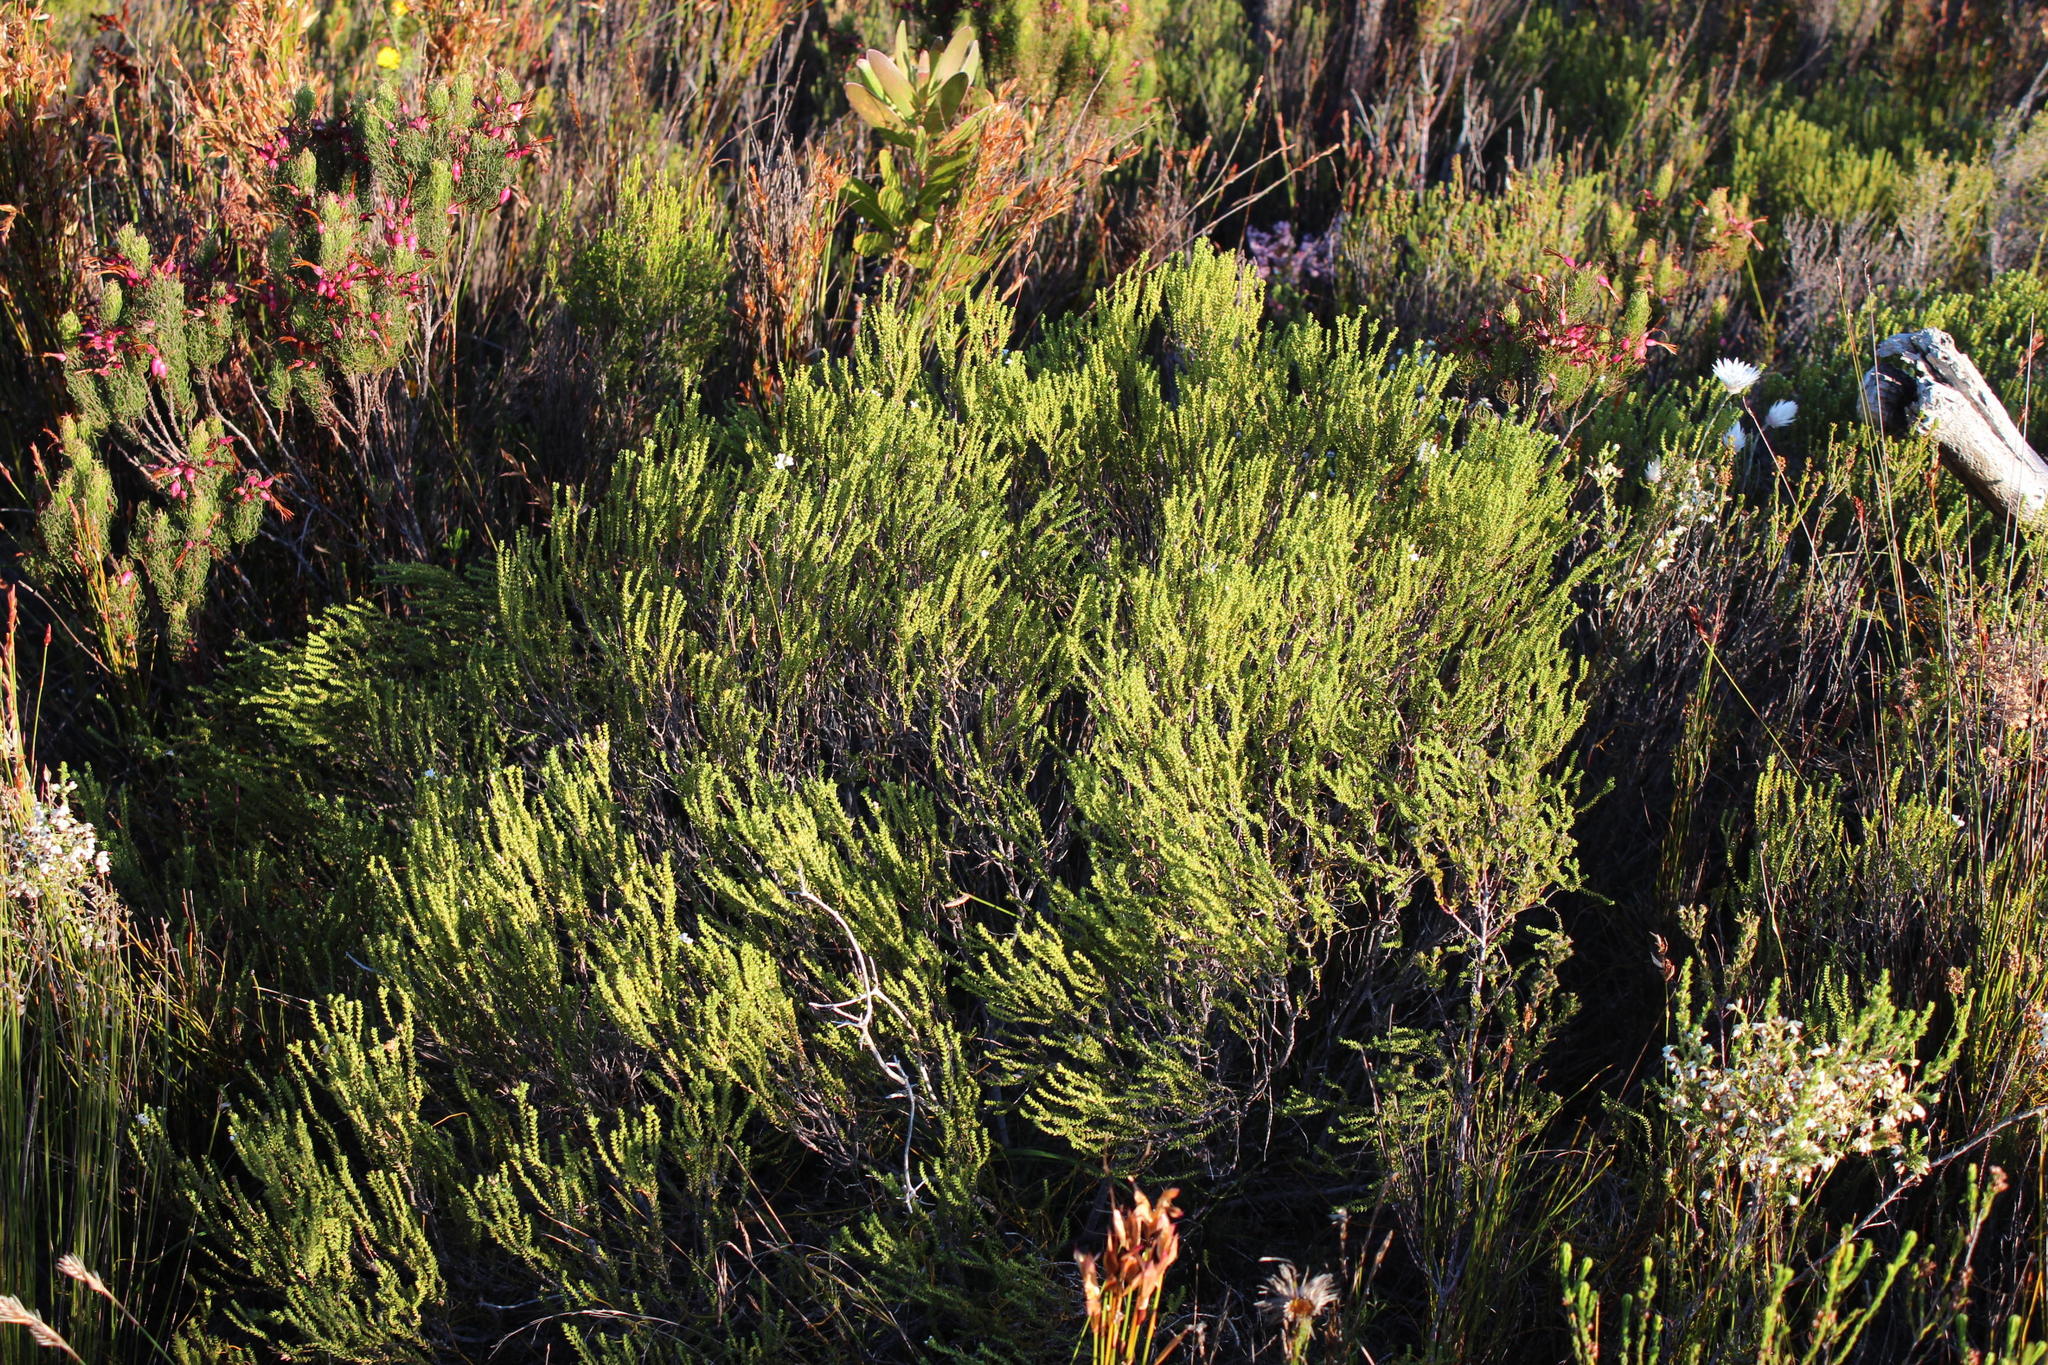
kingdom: Plantae
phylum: Tracheophyta
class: Magnoliopsida
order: Sapindales
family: Rutaceae
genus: Euchaetis
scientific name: Euchaetis burchellii
